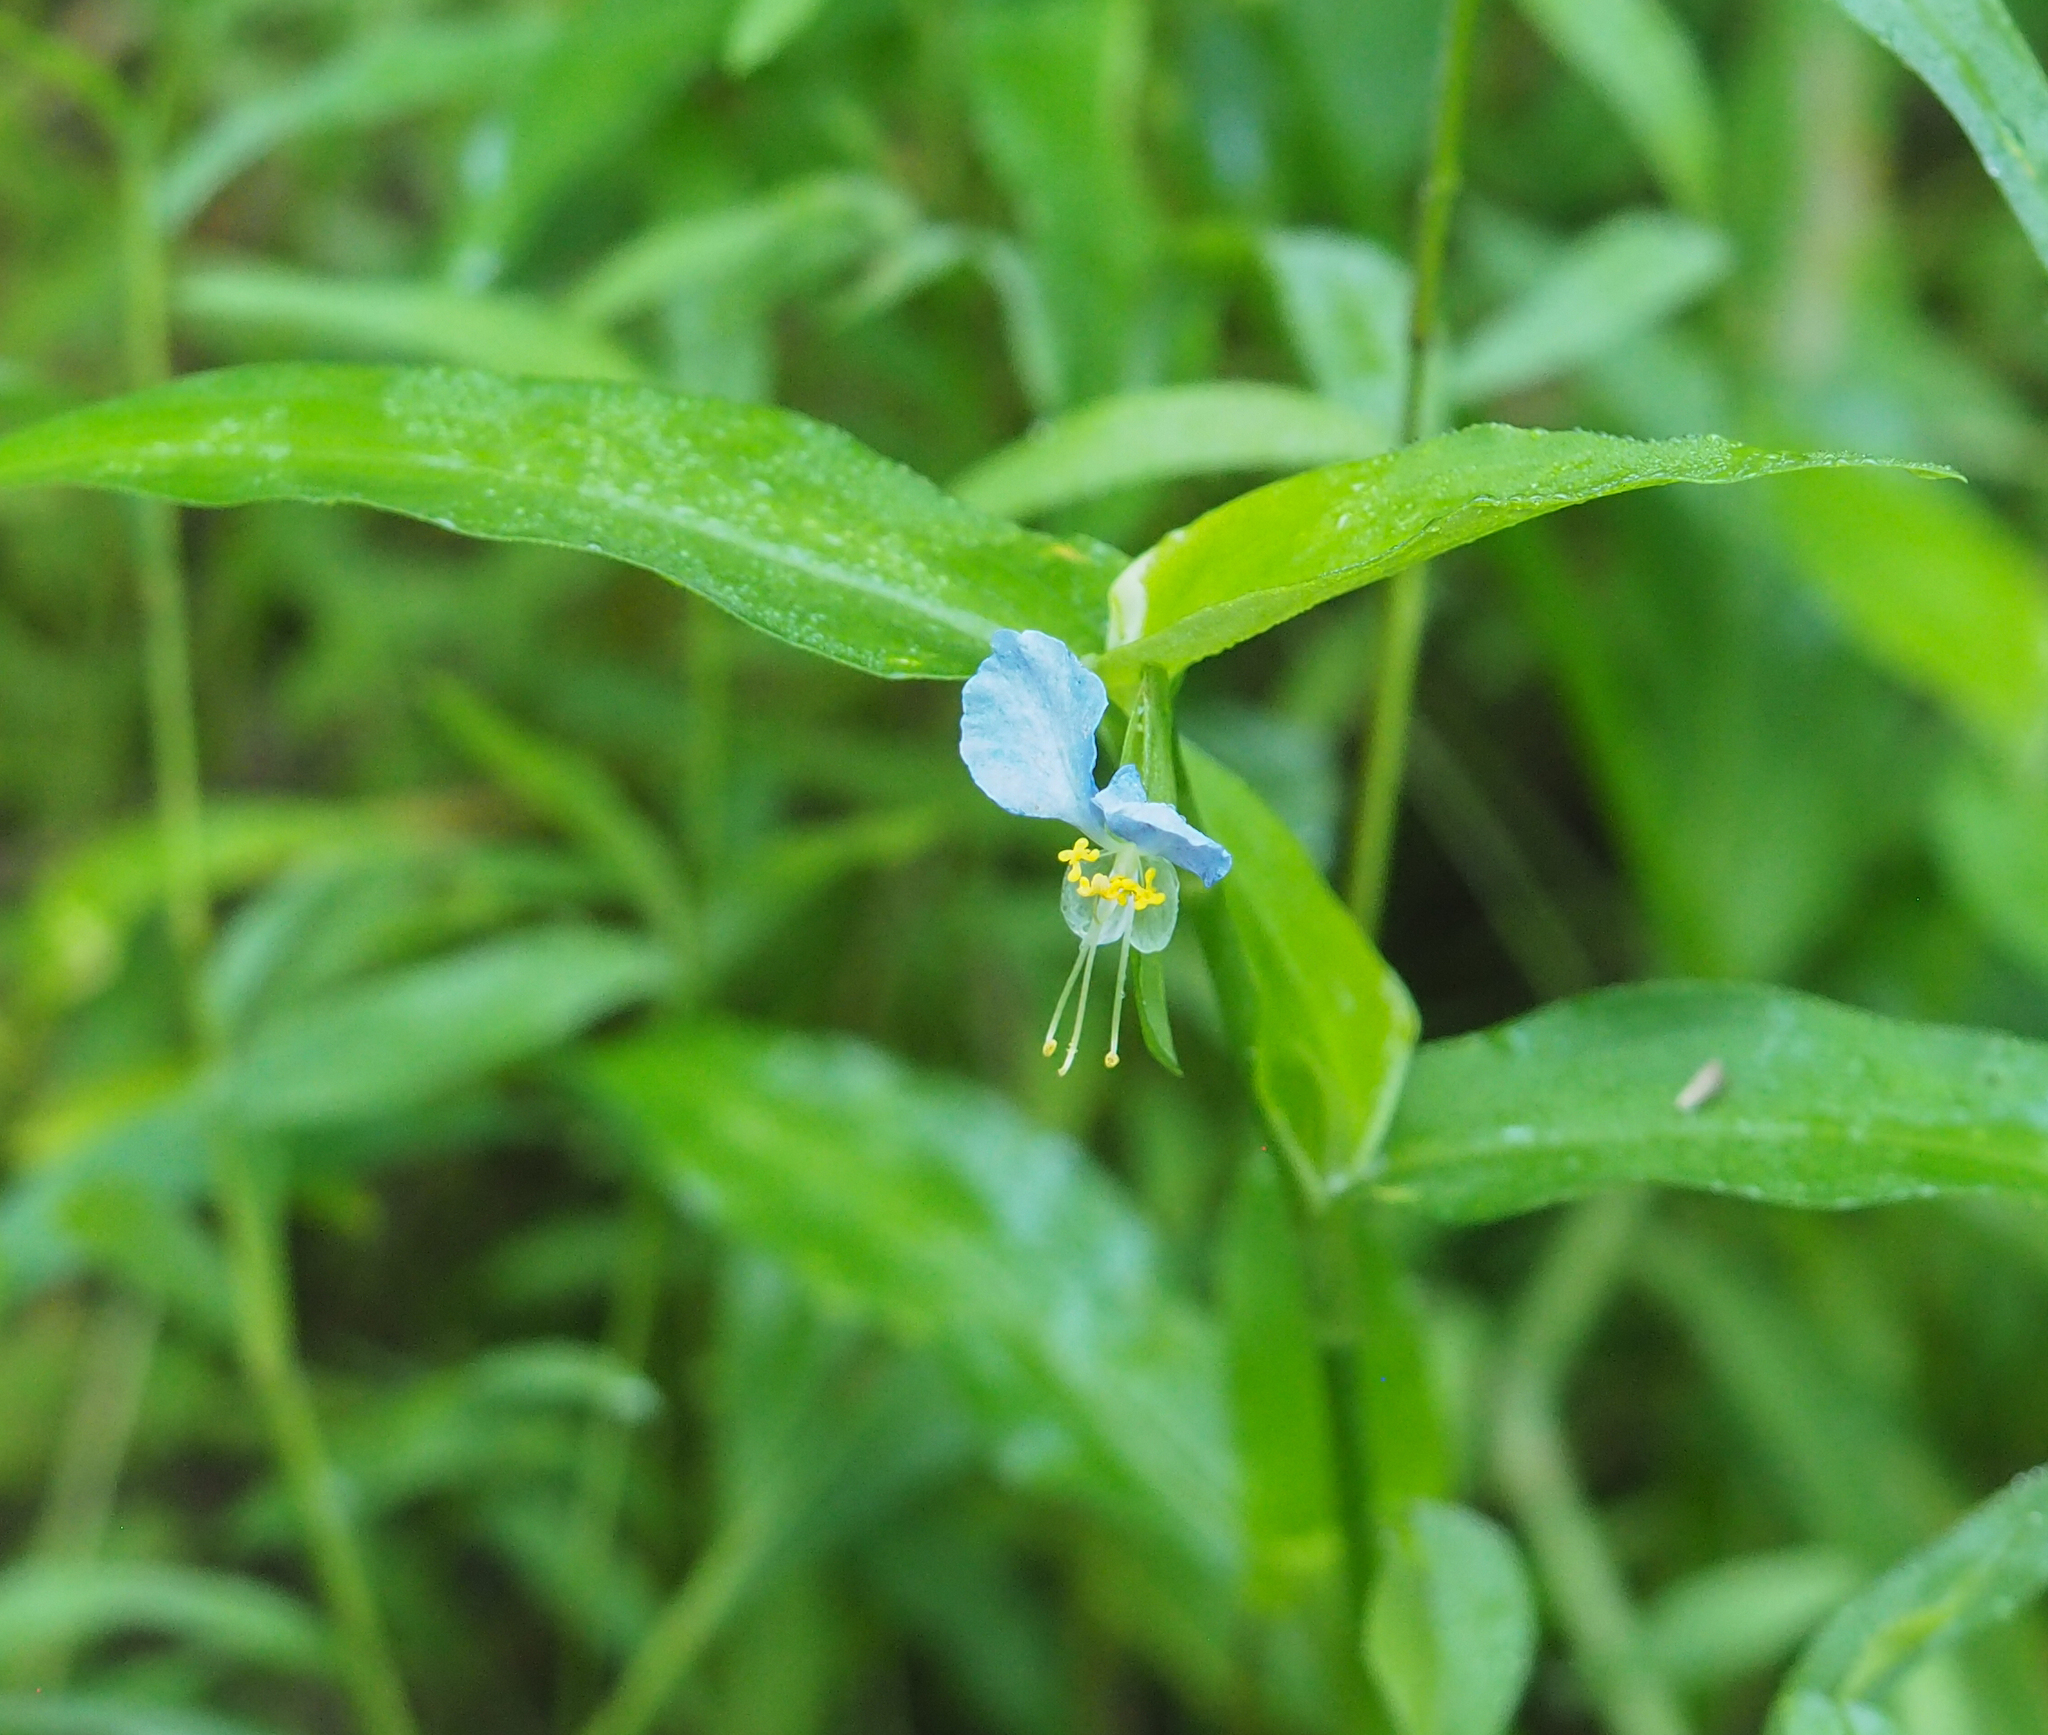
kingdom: Plantae
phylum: Tracheophyta
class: Liliopsida
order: Commelinales
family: Commelinaceae
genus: Commelina
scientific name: Commelina communis
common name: Asiatic dayflower
